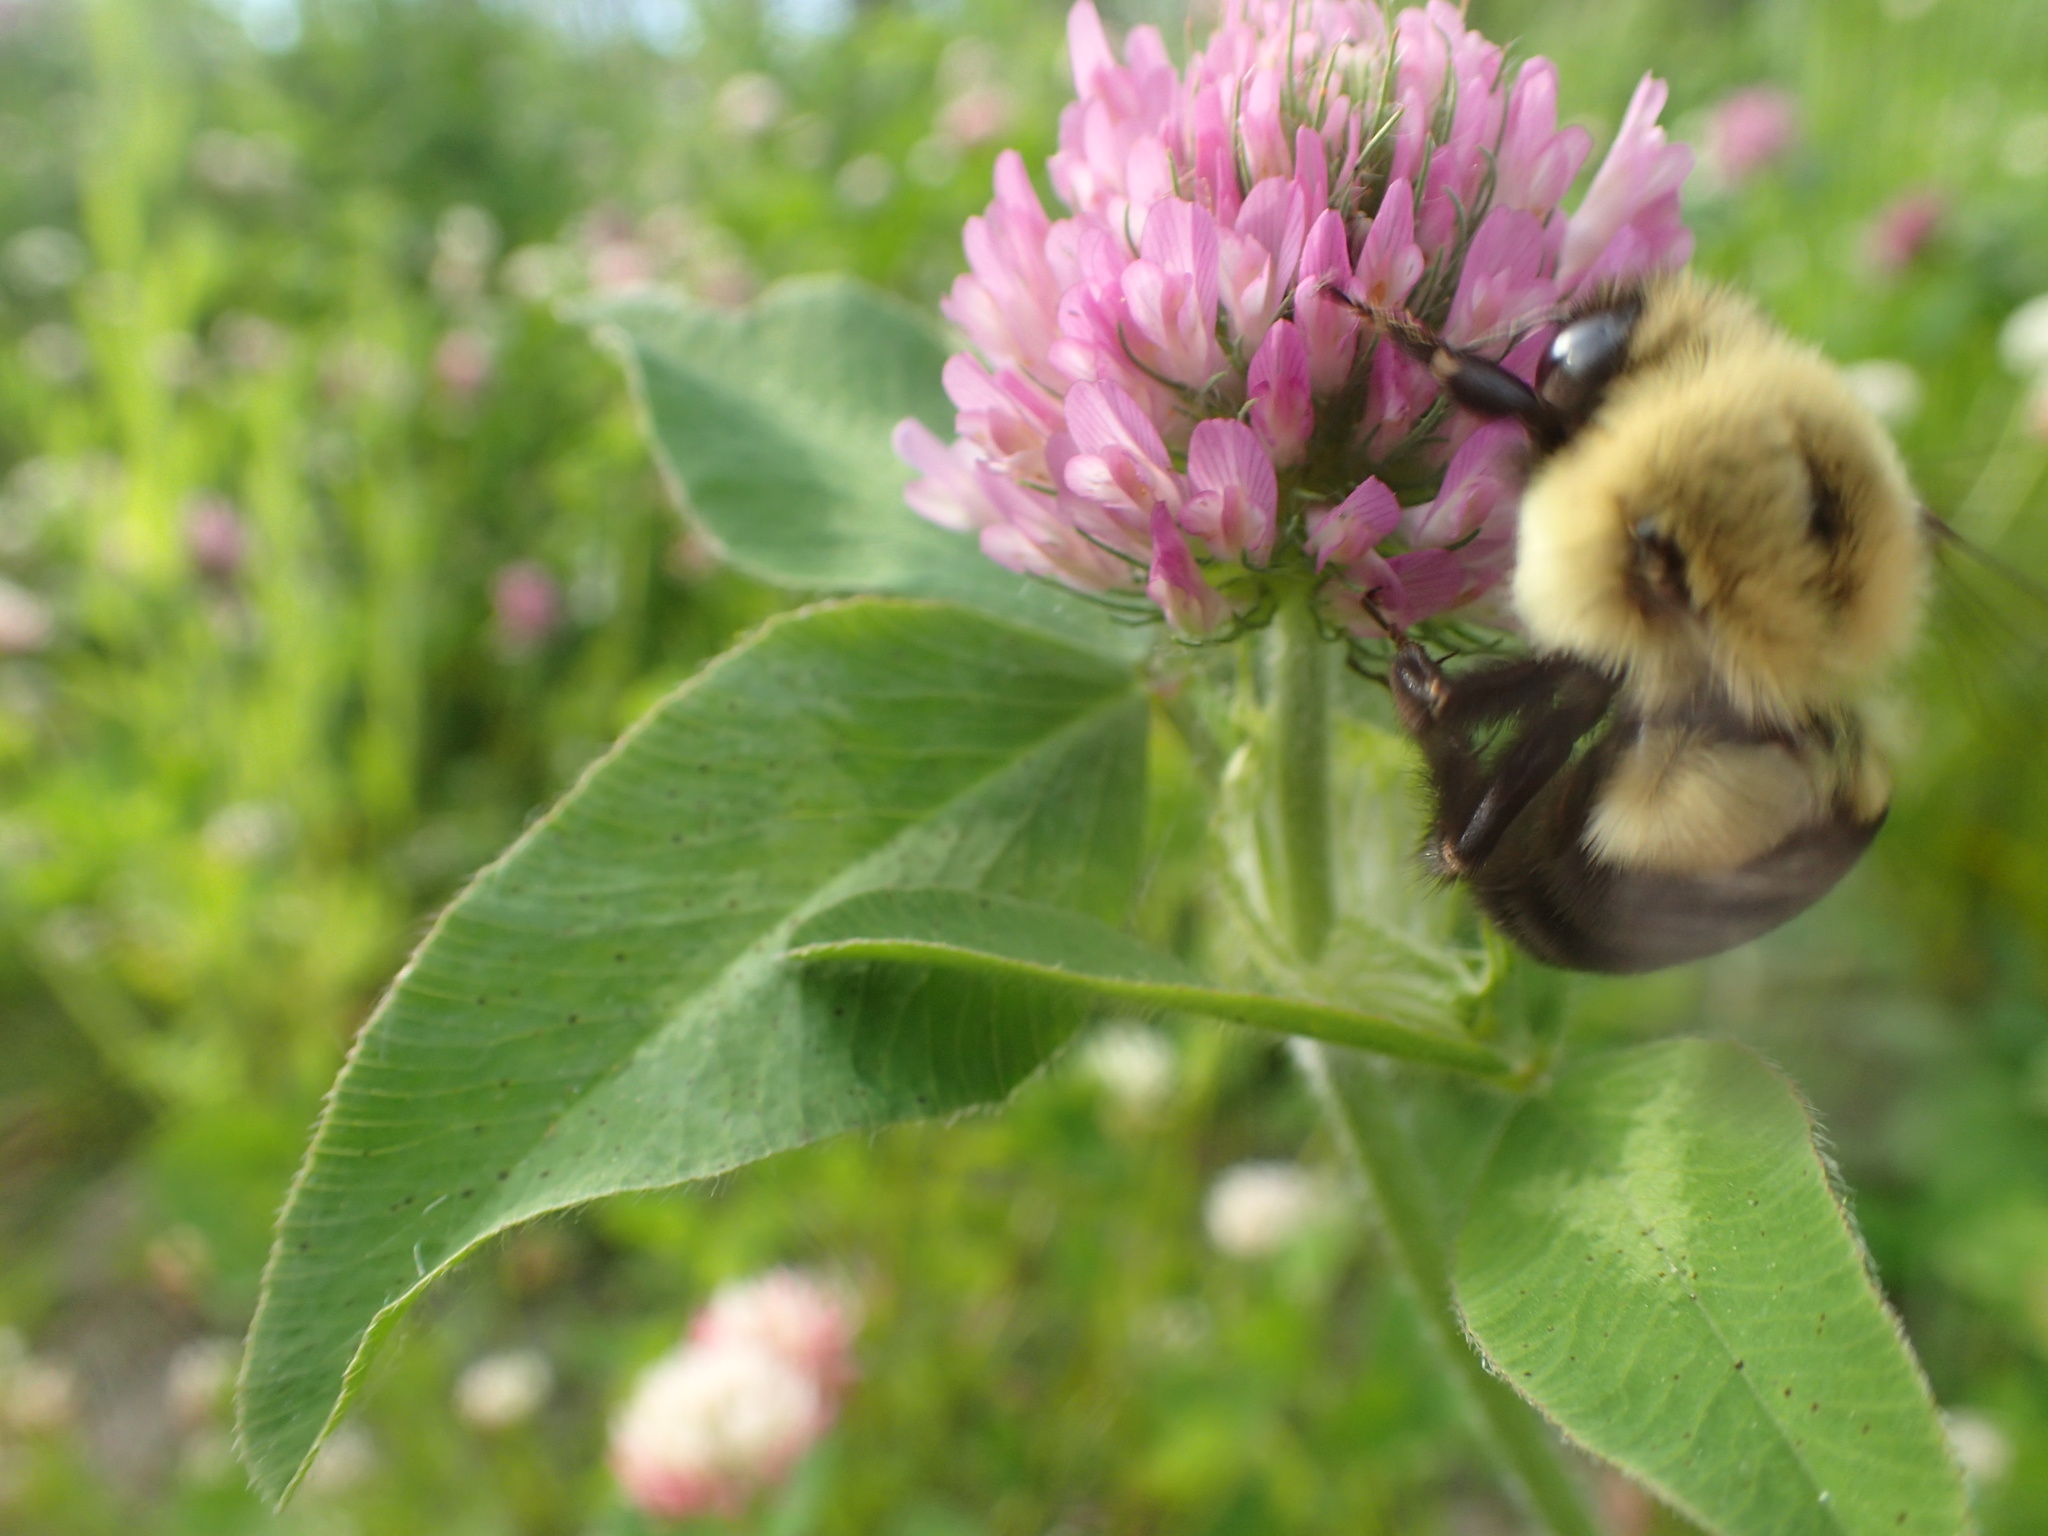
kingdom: Animalia
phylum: Arthropoda
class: Insecta
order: Hymenoptera
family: Apidae
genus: Bombus
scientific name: Bombus impatiens
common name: Common eastern bumble bee
